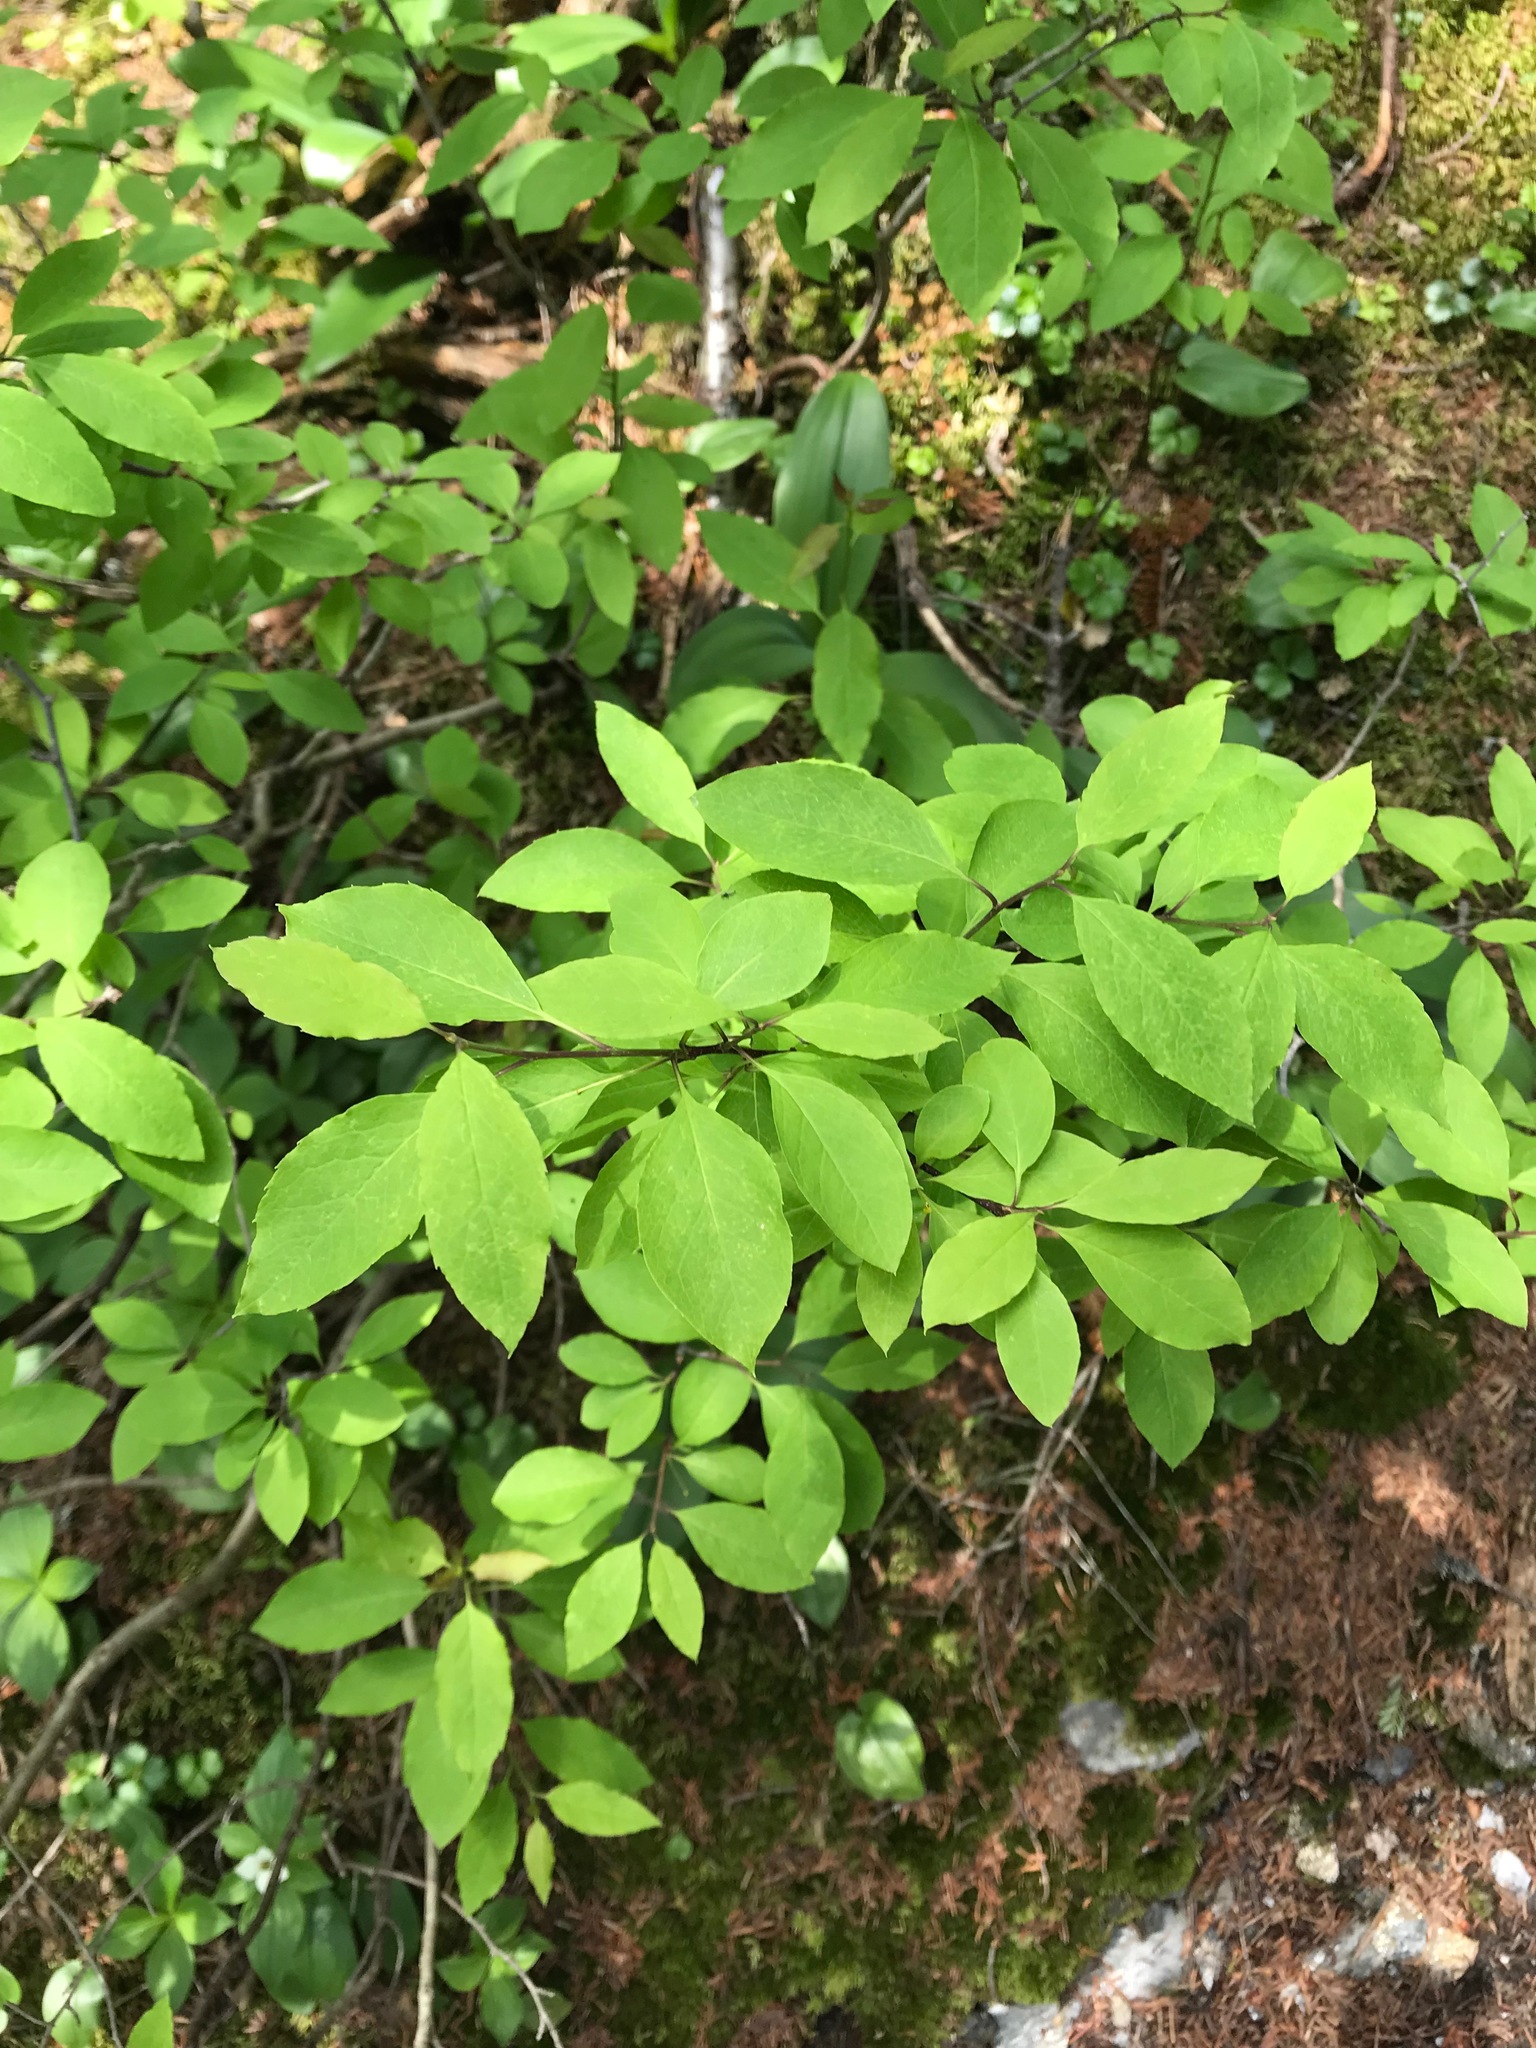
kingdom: Plantae
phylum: Tracheophyta
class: Magnoliopsida
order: Aquifoliales
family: Aquifoliaceae
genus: Ilex
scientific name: Ilex mucronata
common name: Catberry
